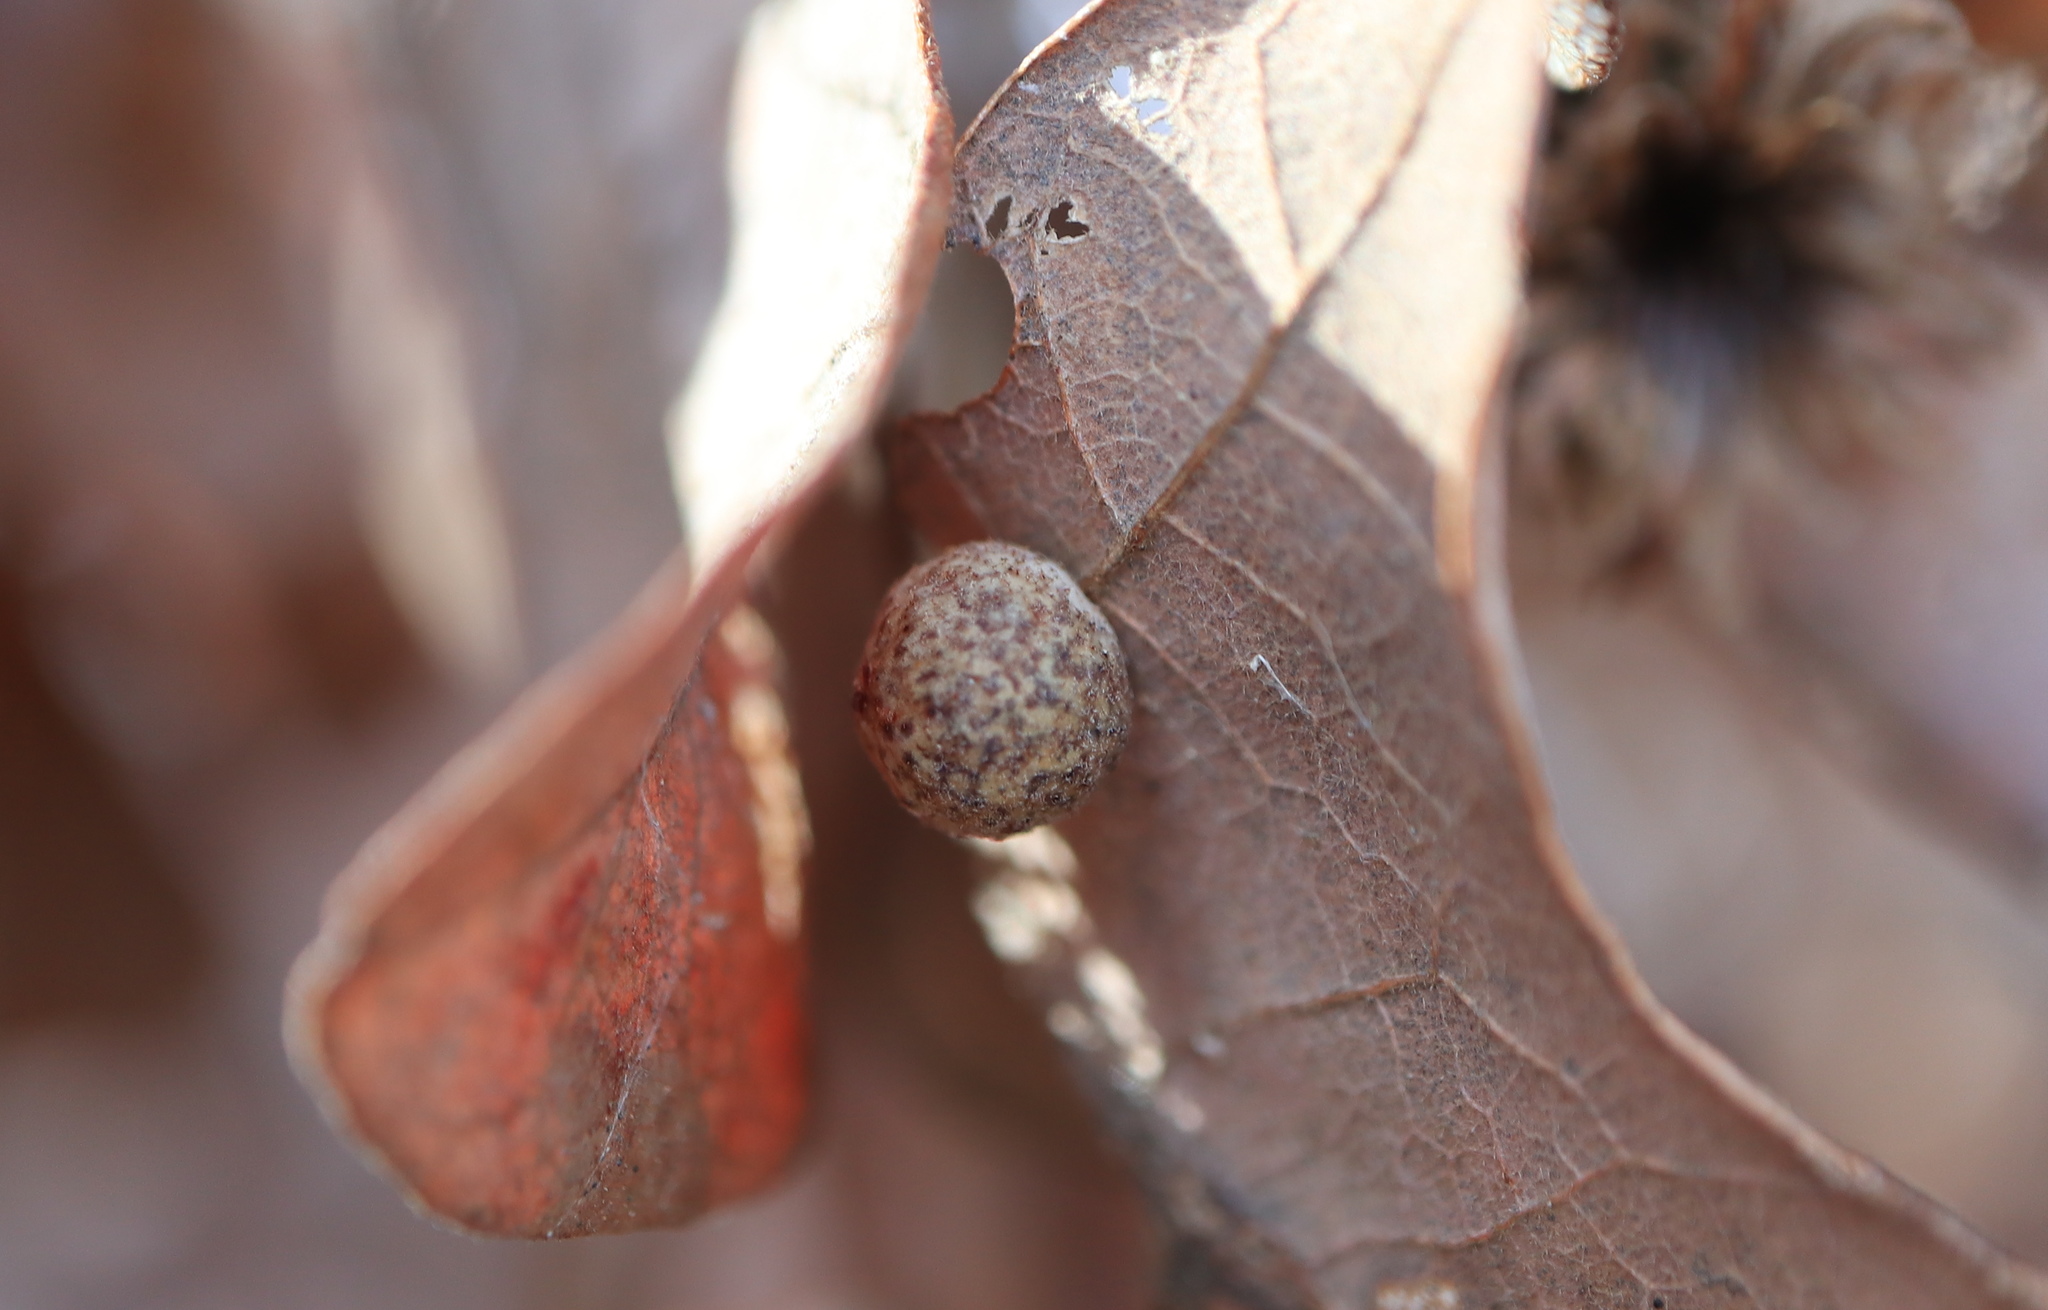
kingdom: Animalia
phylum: Arthropoda
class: Insecta
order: Hymenoptera
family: Cynipidae
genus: Atrusca
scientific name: Atrusca
